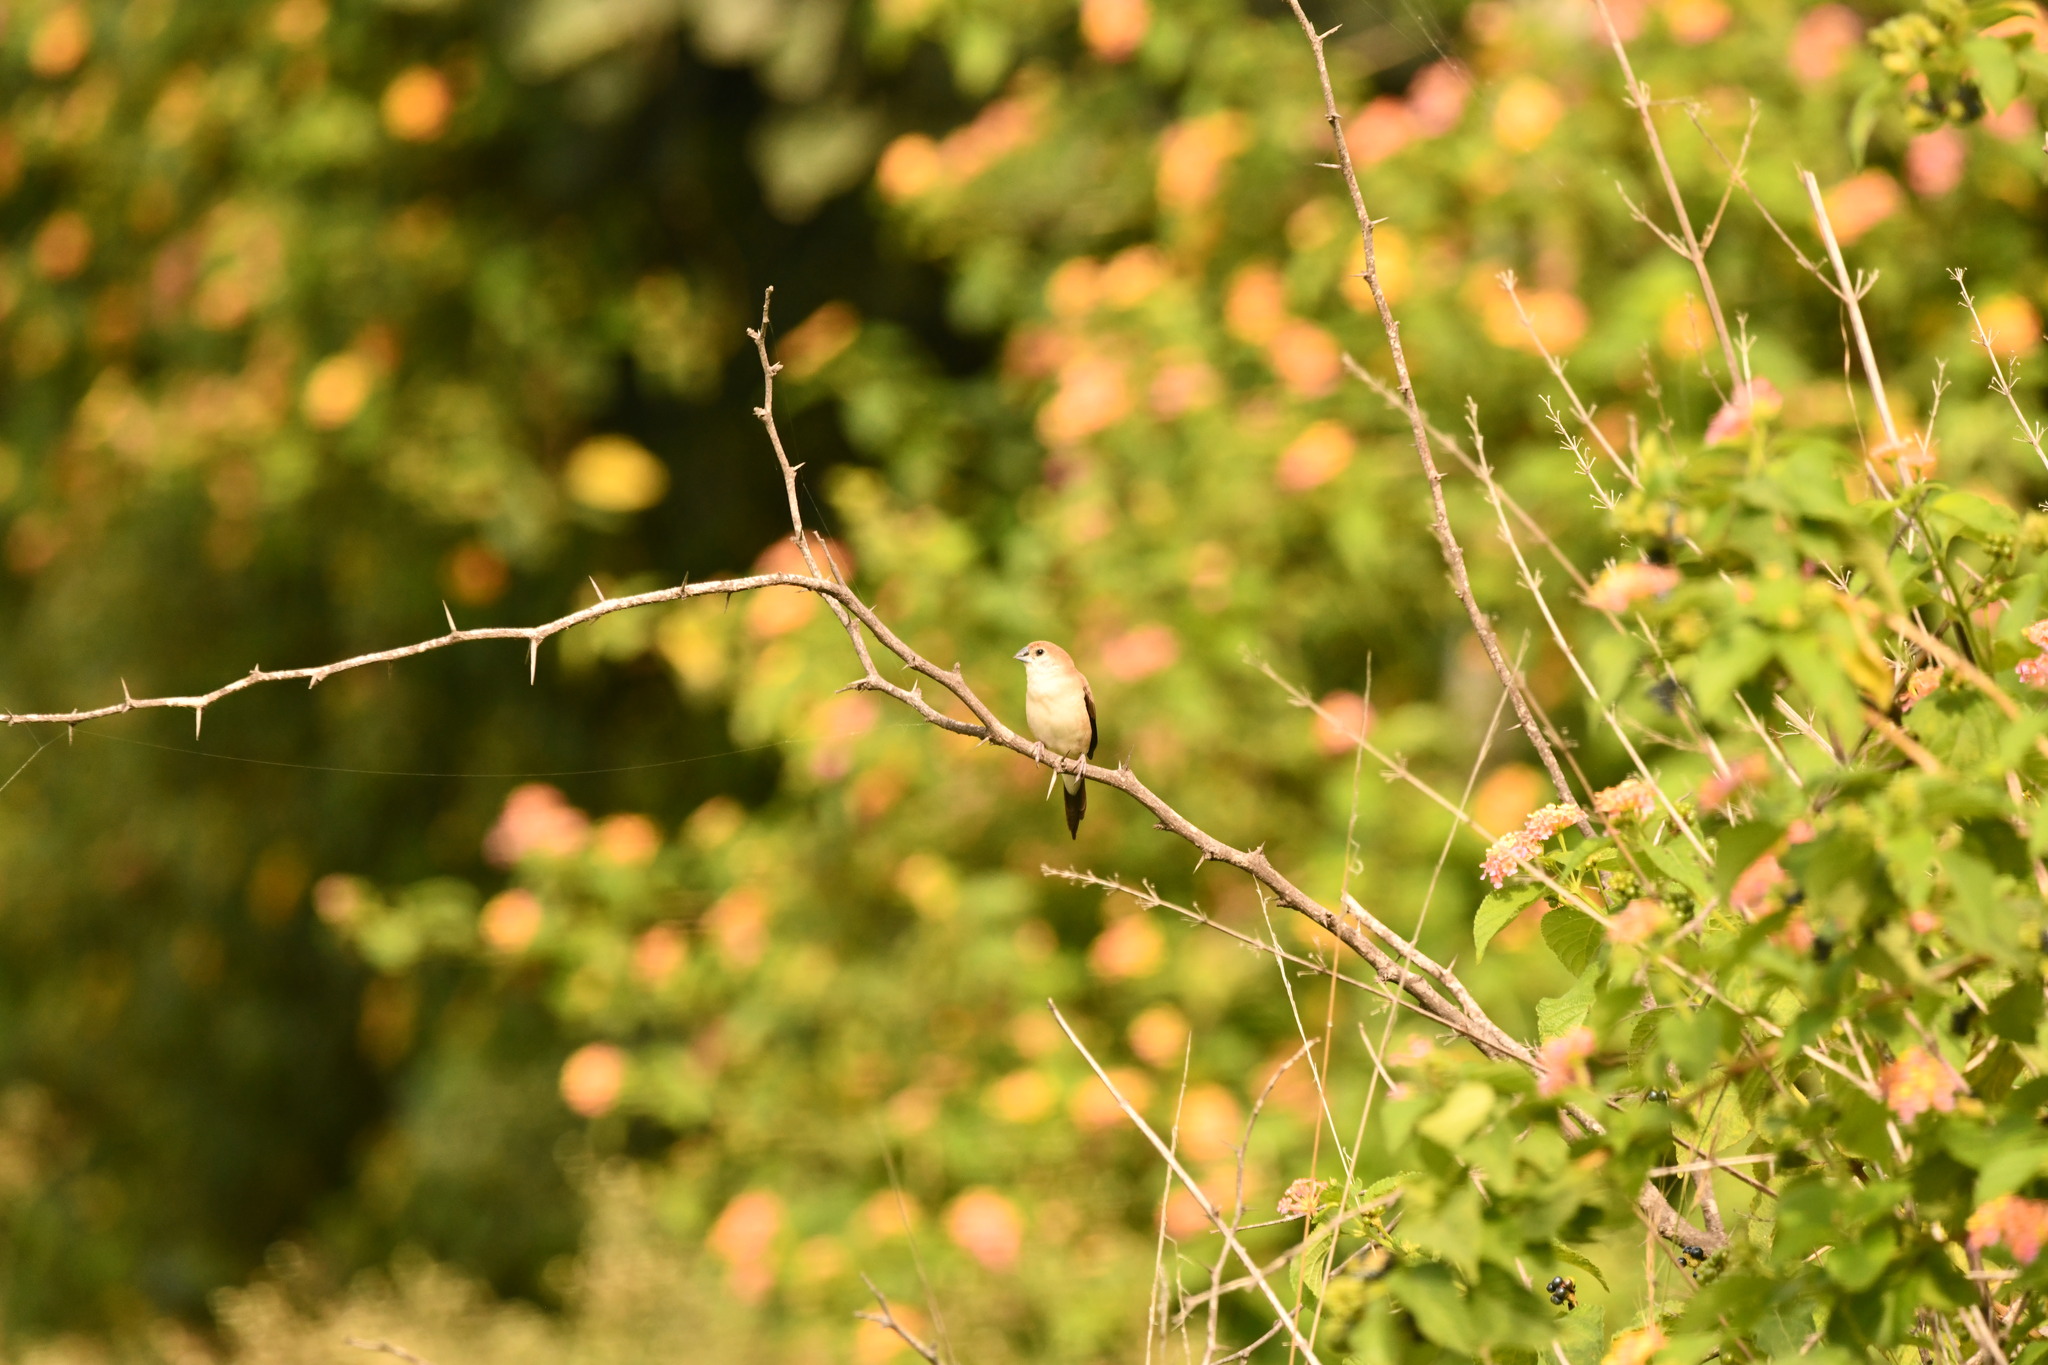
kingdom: Animalia
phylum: Chordata
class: Aves
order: Passeriformes
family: Estrildidae
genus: Euodice
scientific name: Euodice malabarica
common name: Indian silverbill
